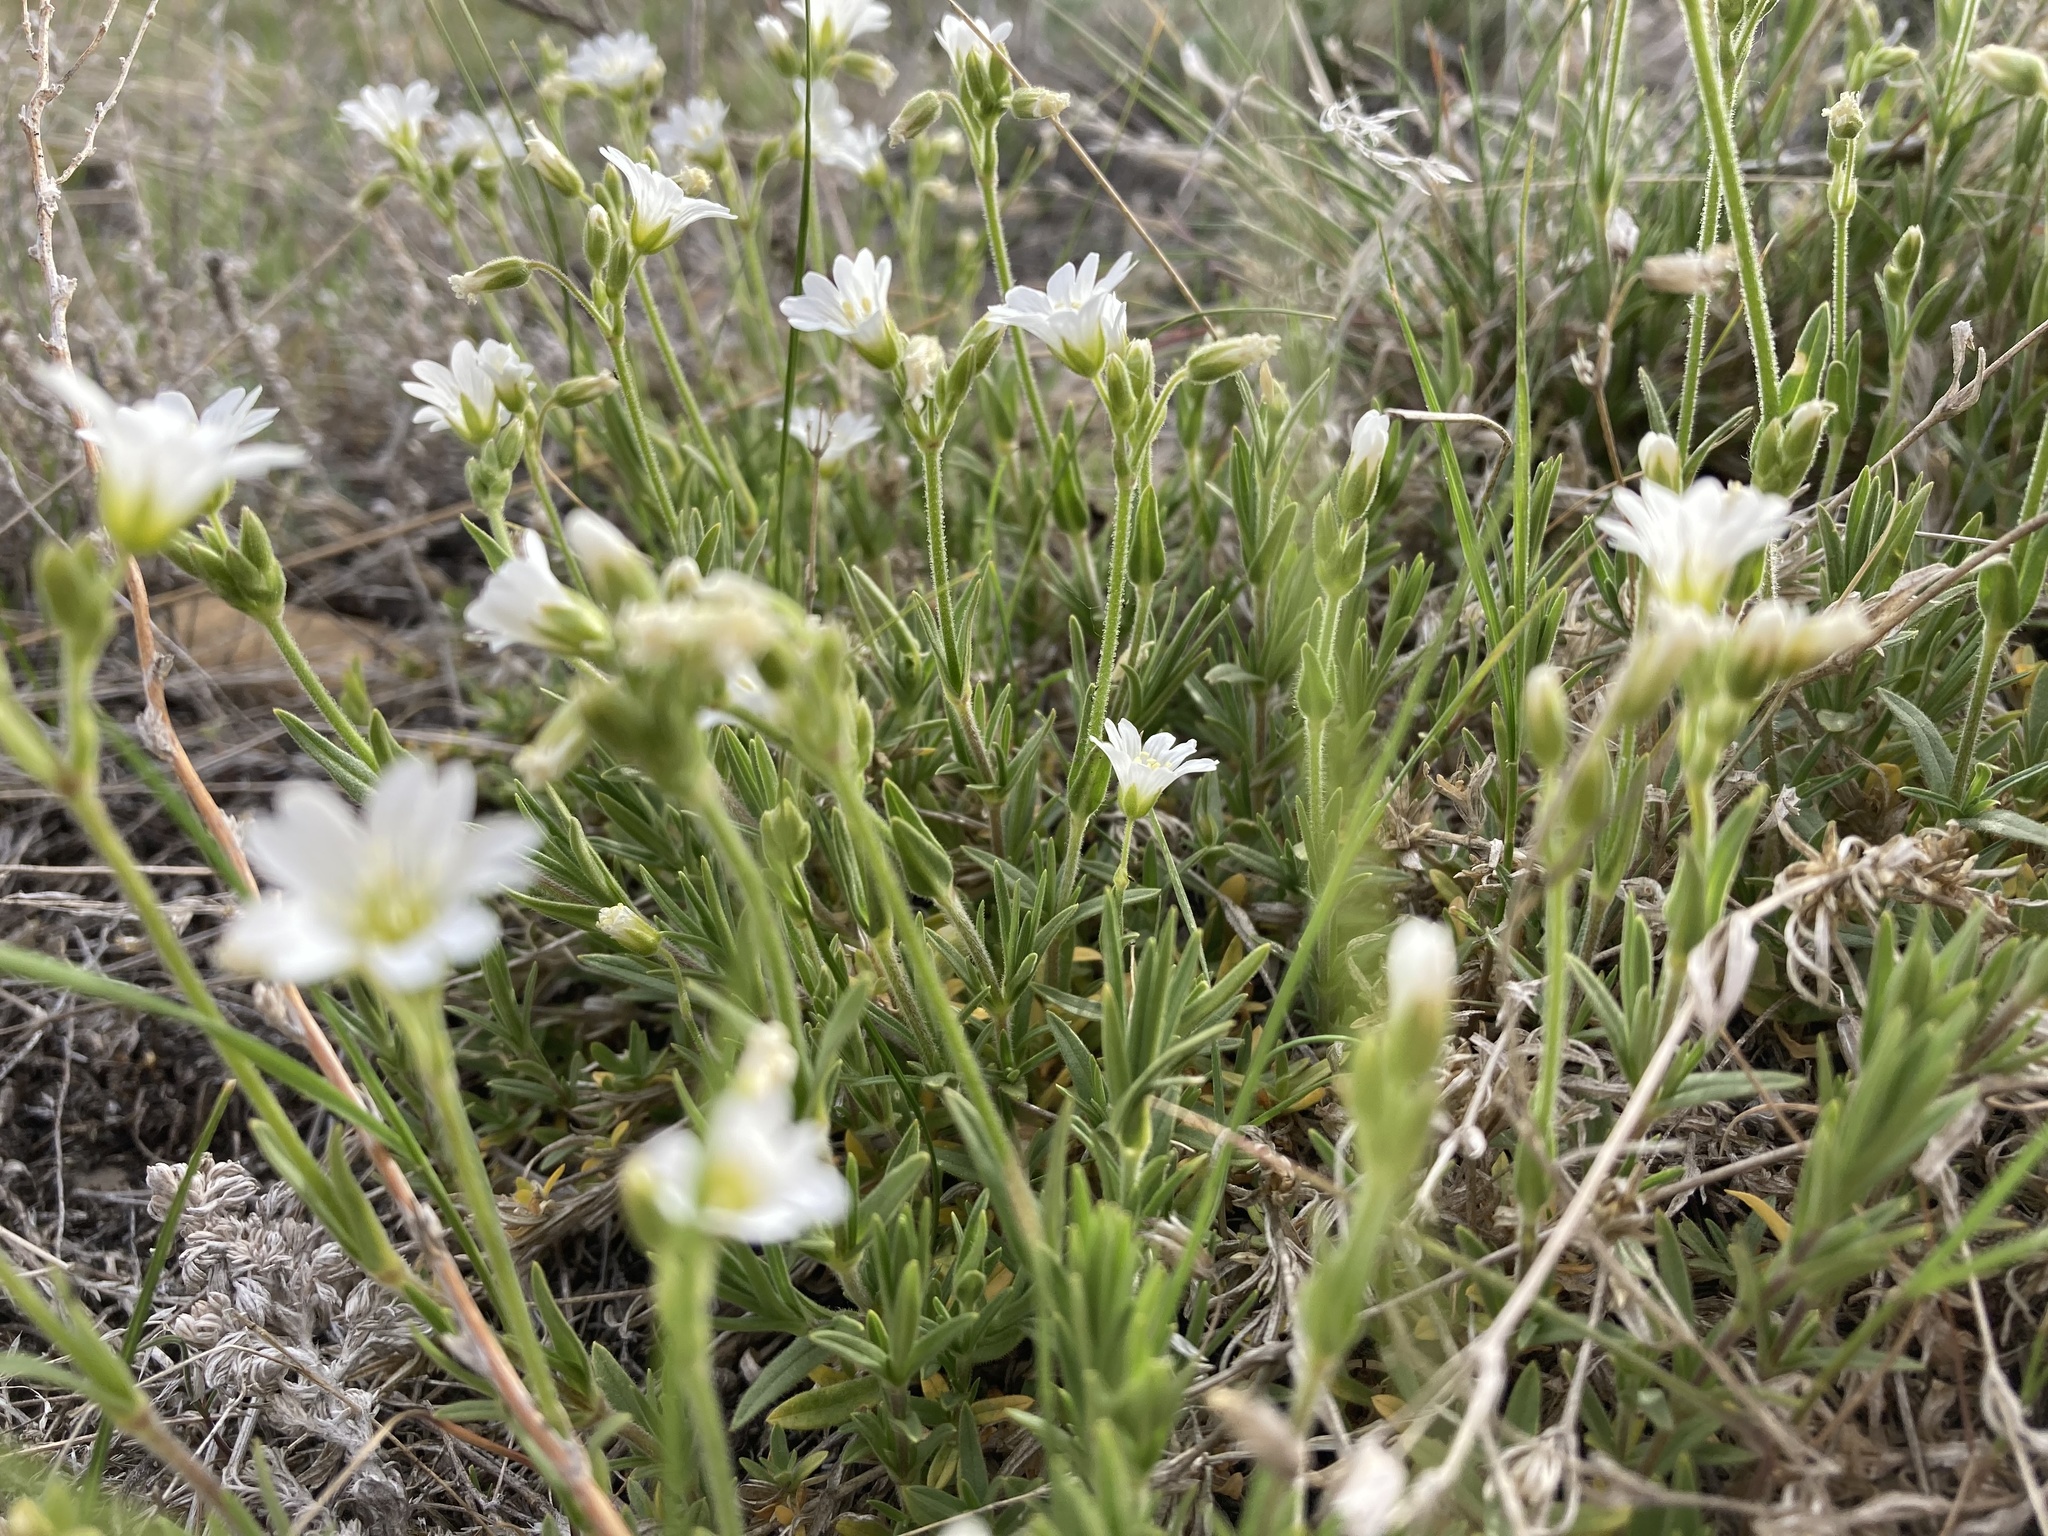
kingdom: Plantae
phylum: Tracheophyta
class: Magnoliopsida
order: Caryophyllales
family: Caryophyllaceae
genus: Cerastium
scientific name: Cerastium arvense
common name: Field mouse-ear
